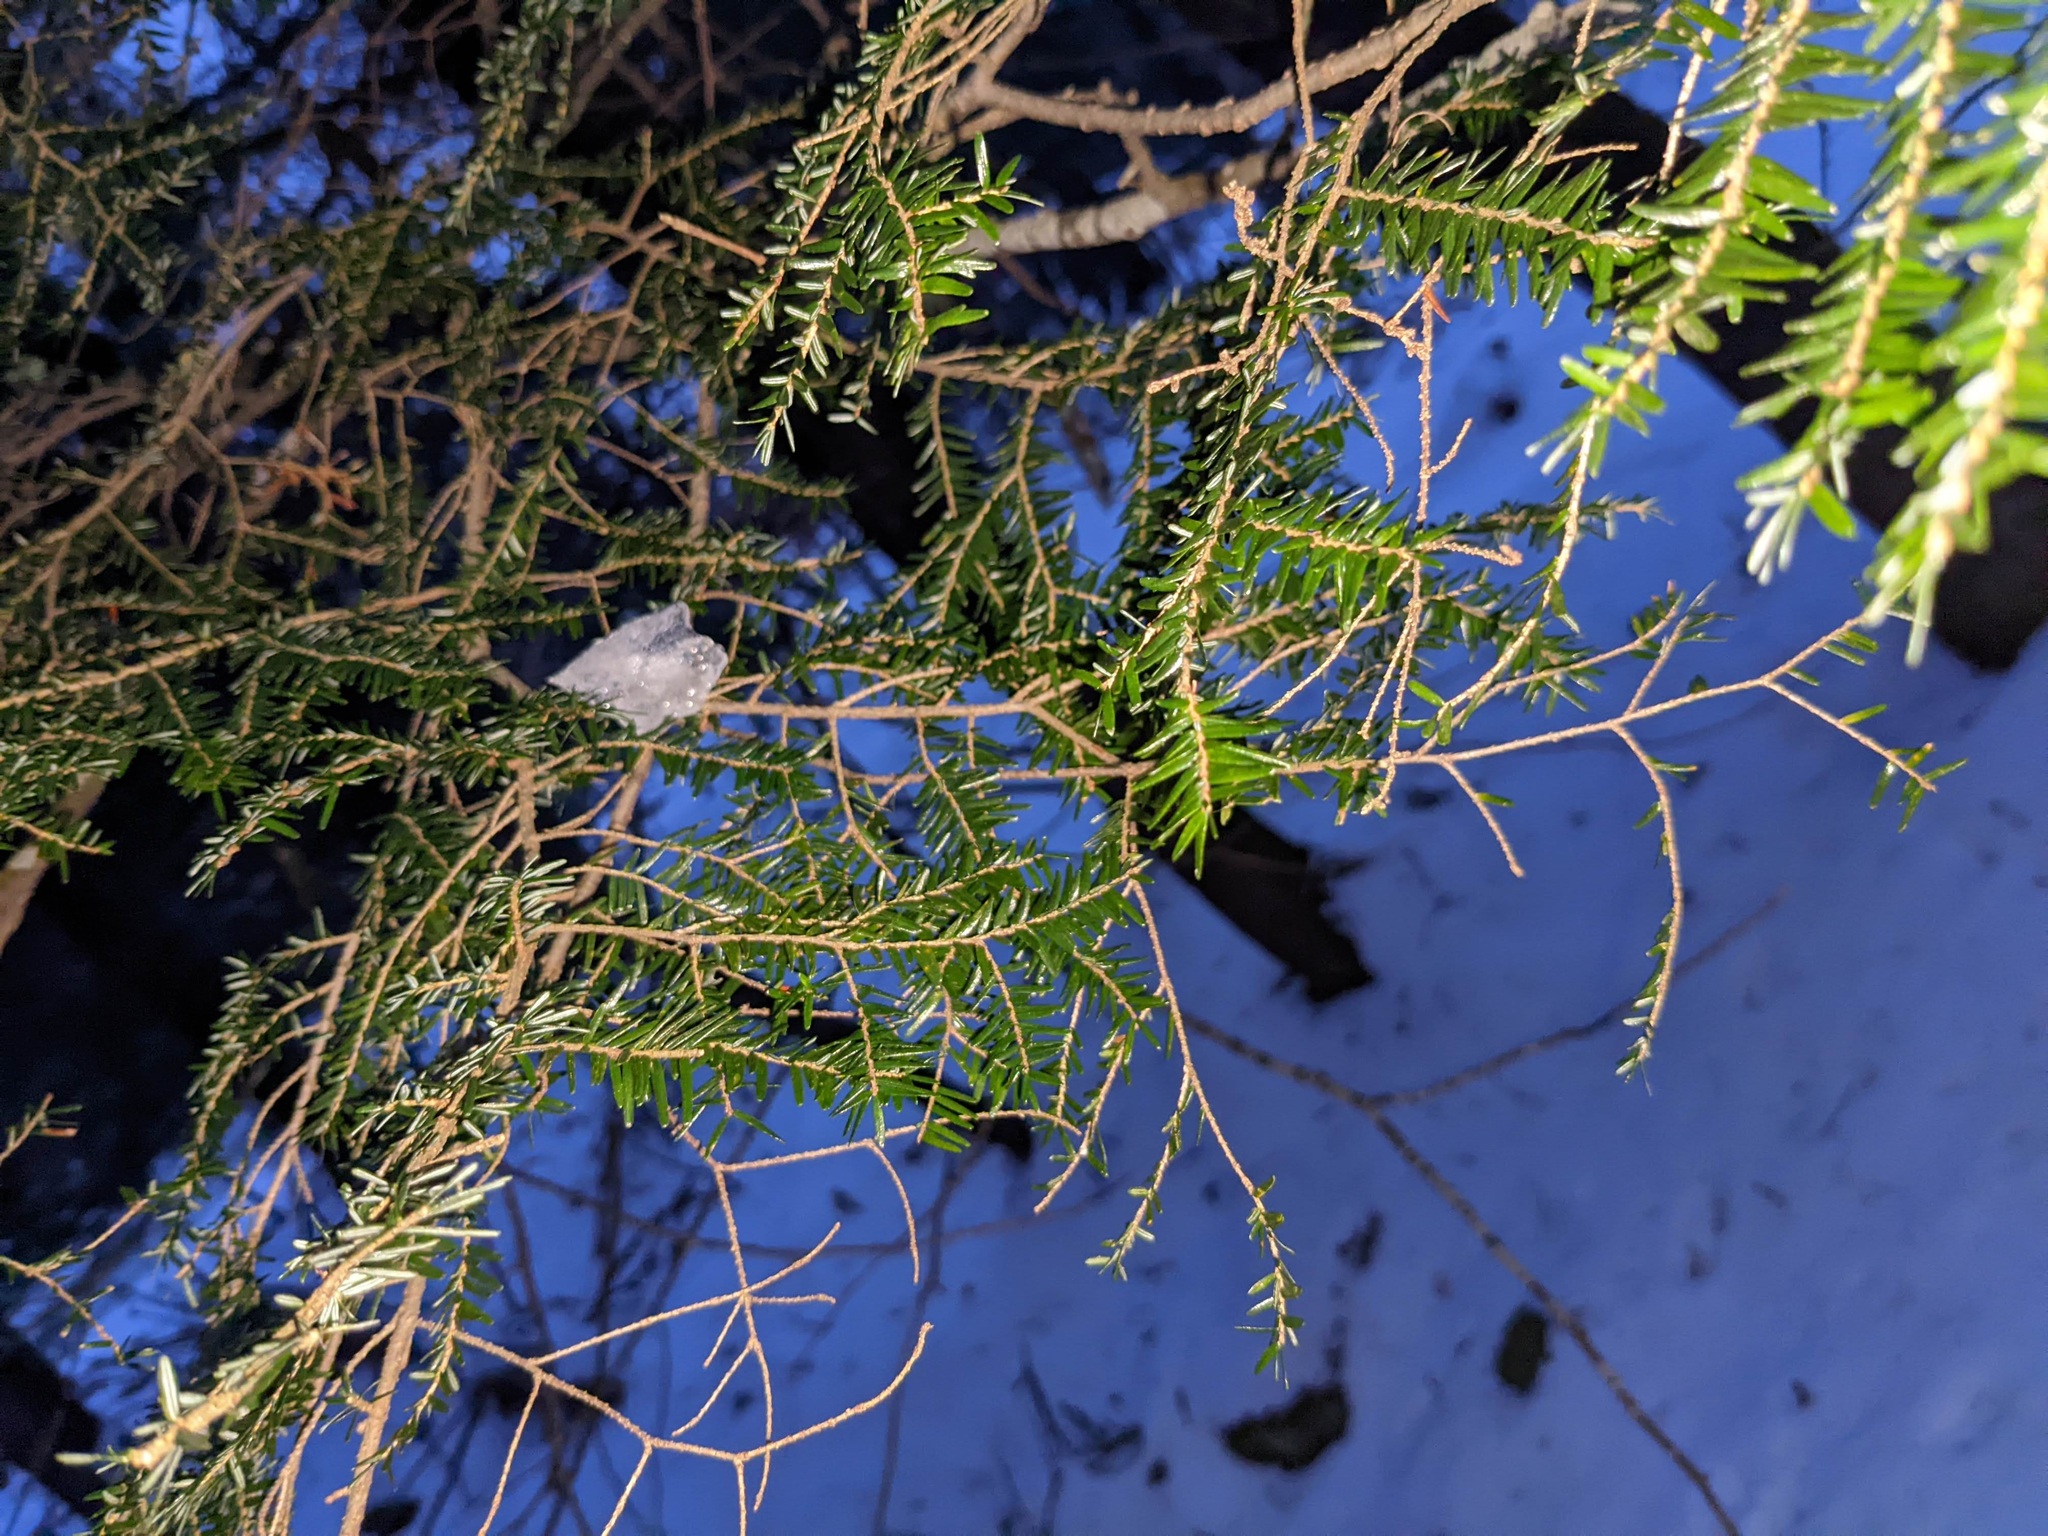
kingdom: Plantae
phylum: Tracheophyta
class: Pinopsida
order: Pinales
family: Pinaceae
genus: Tsuga
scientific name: Tsuga canadensis
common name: Eastern hemlock
